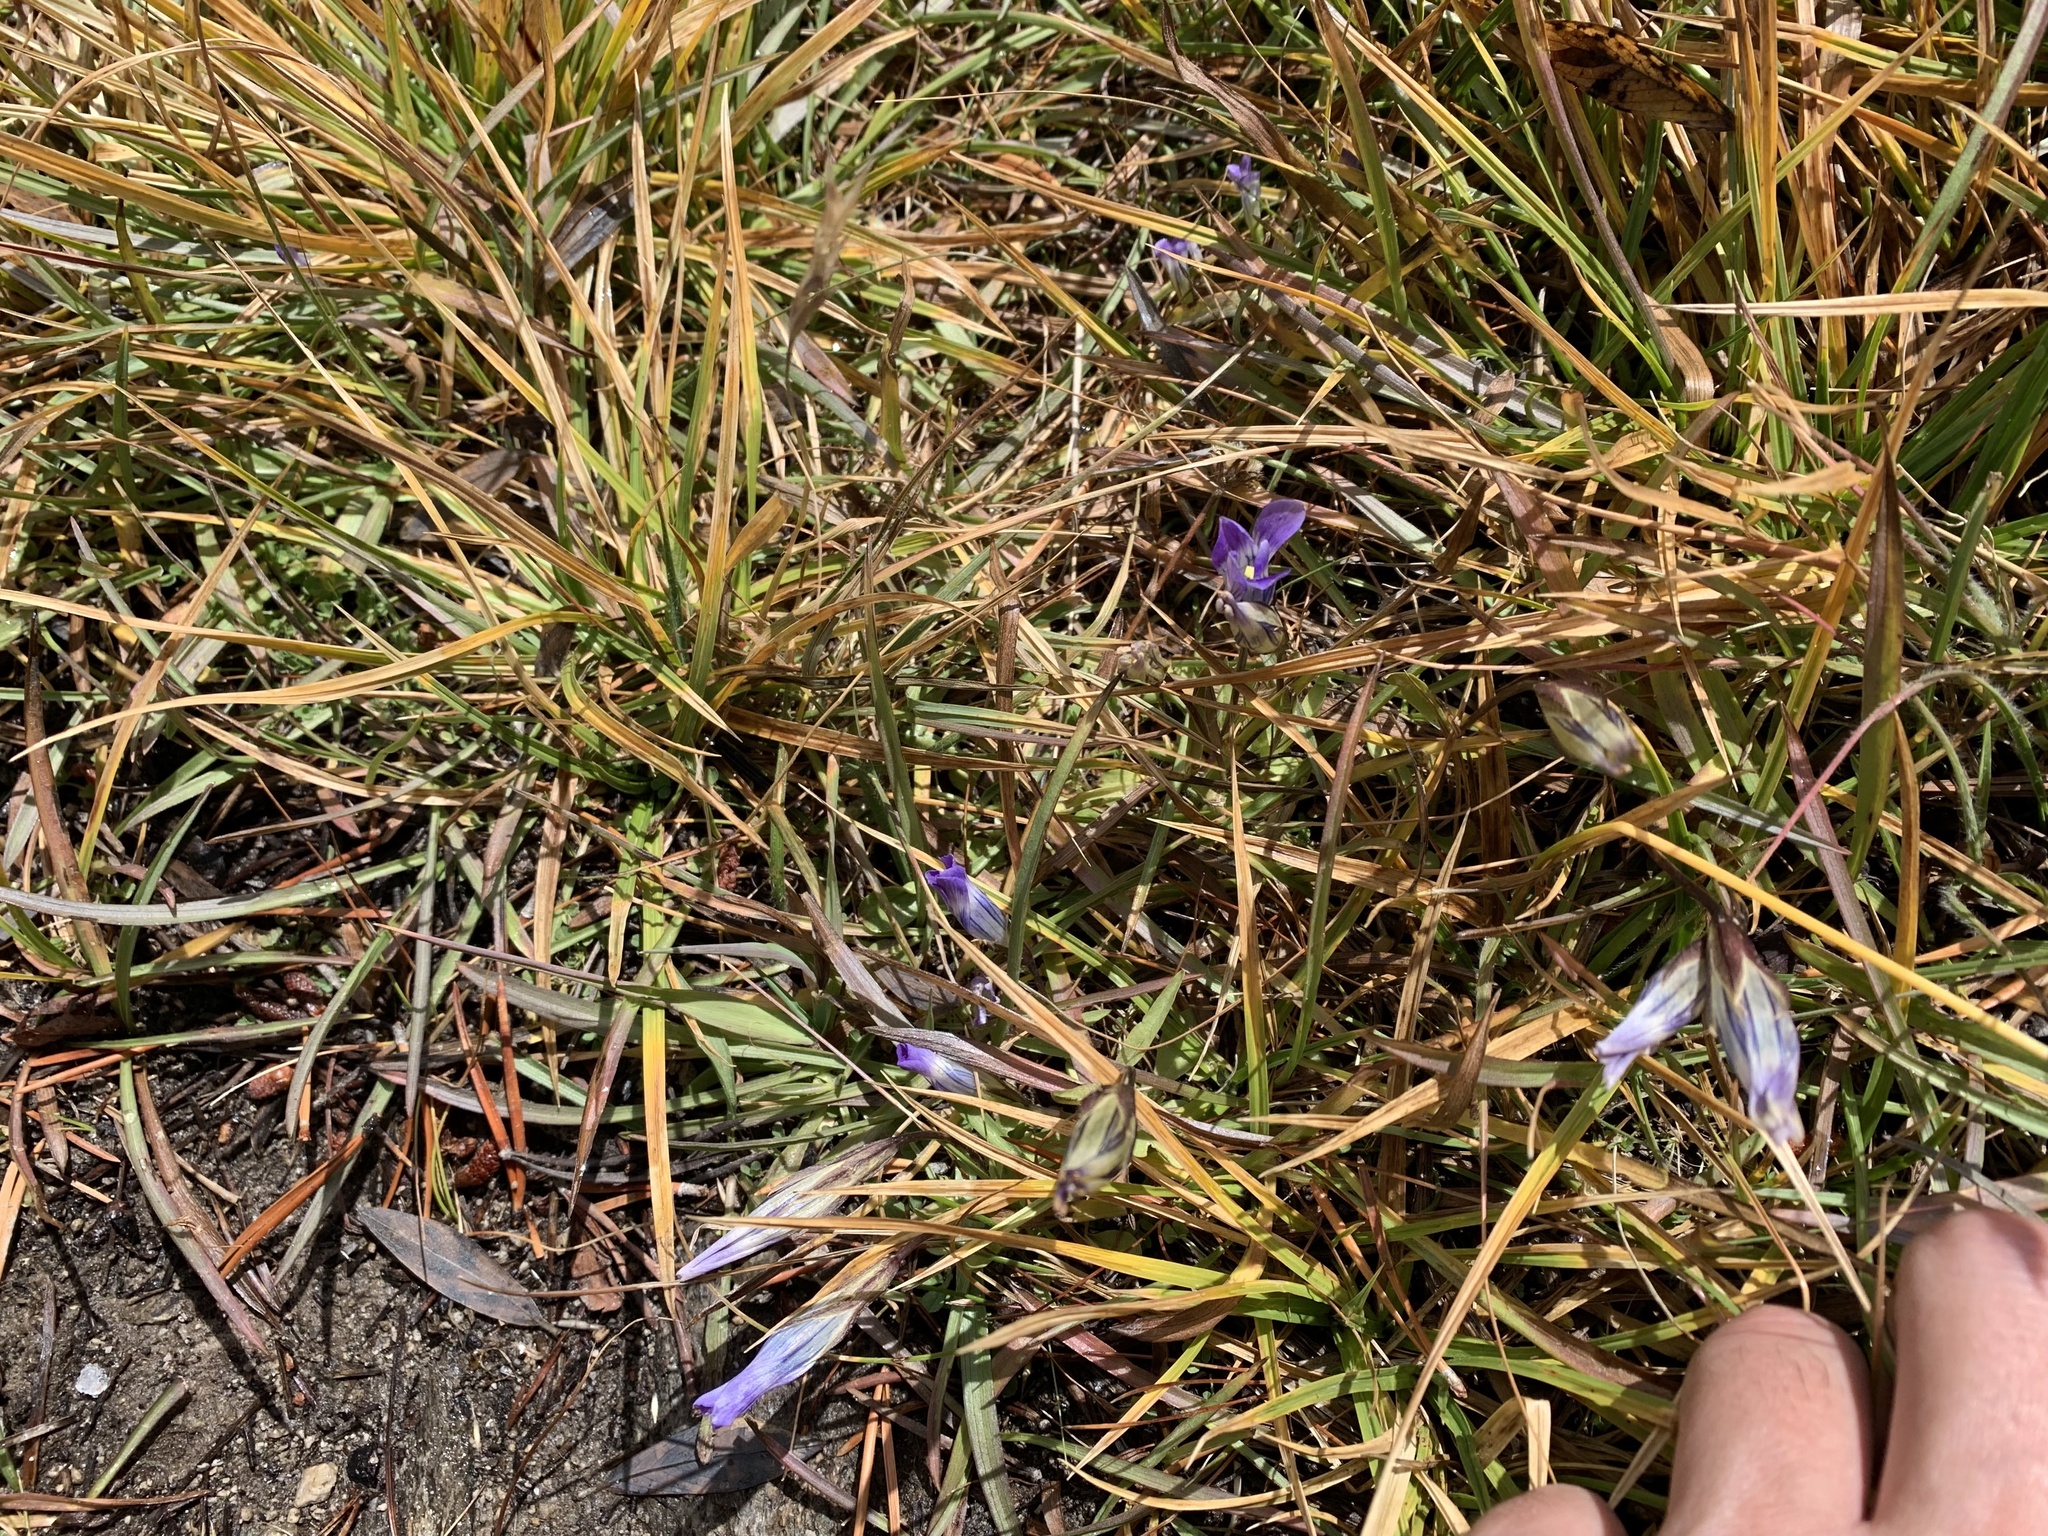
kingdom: Plantae
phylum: Tracheophyta
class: Magnoliopsida
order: Gentianales
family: Gentianaceae
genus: Gentianopsis
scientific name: Gentianopsis holopetala
